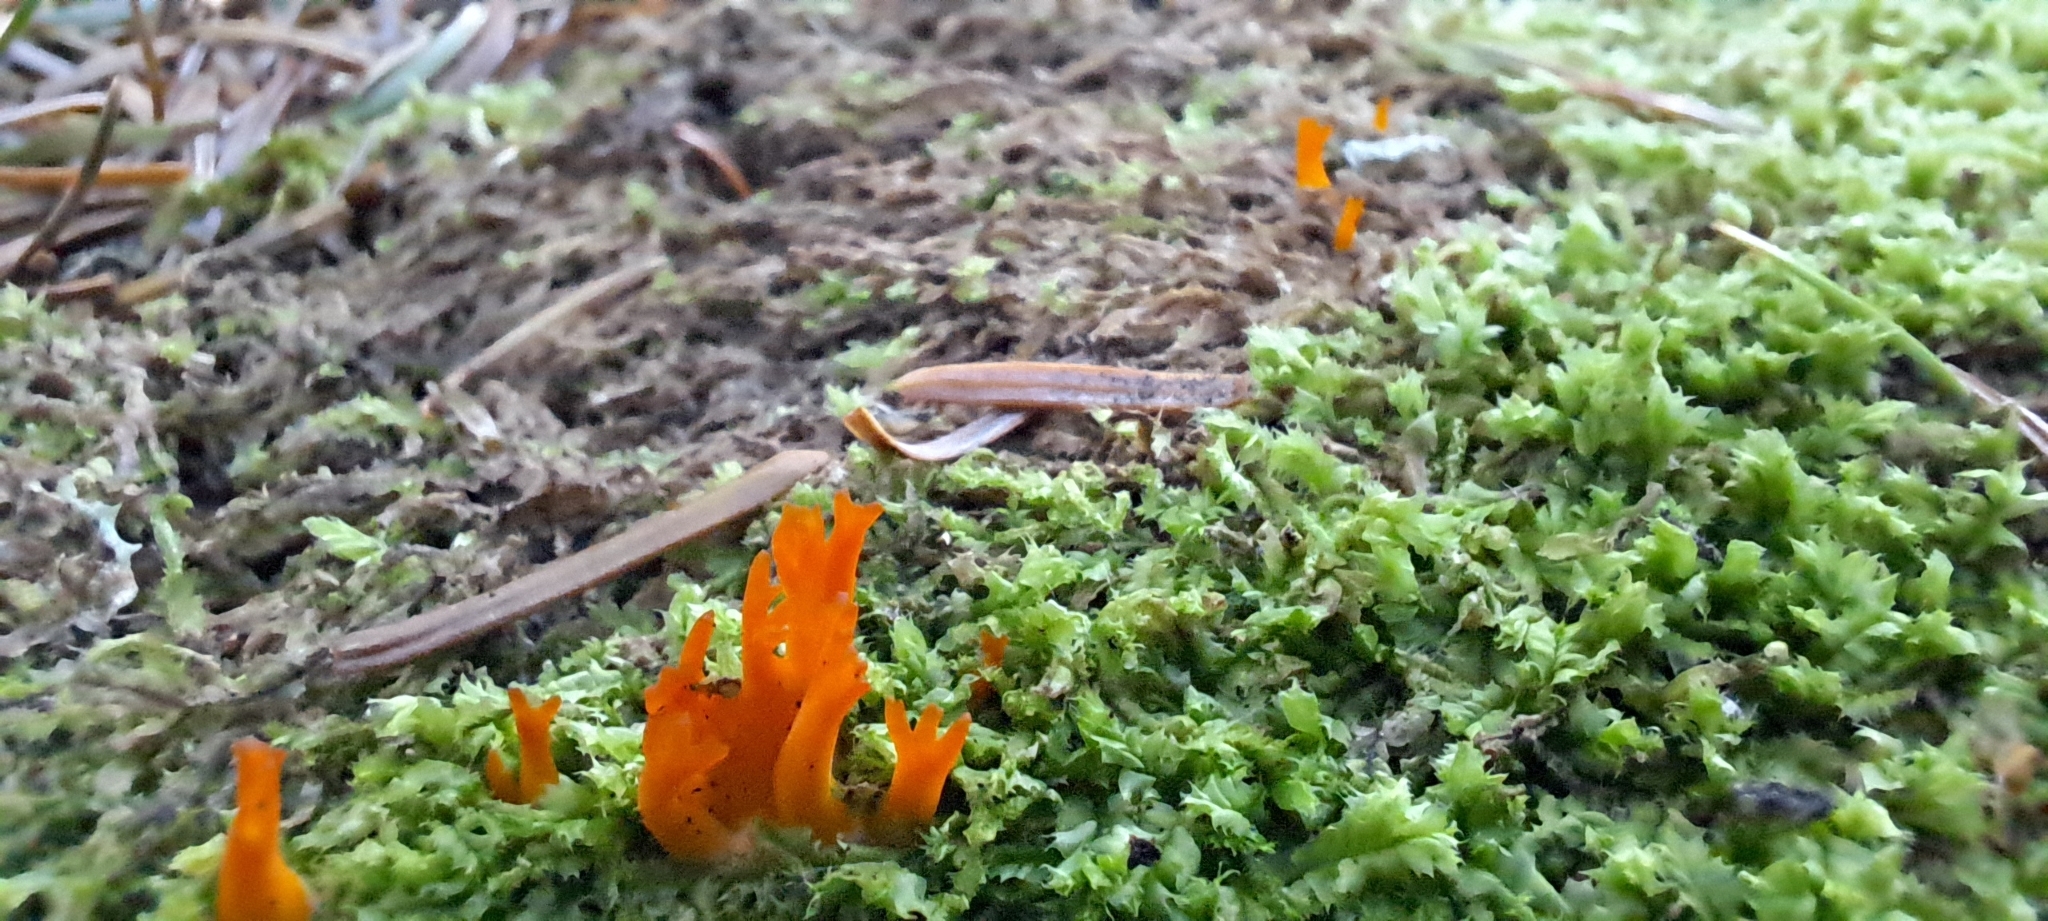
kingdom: Fungi
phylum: Basidiomycota
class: Dacrymycetes
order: Dacrymycetales
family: Dacrymycetaceae
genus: Calocera
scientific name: Calocera viscosa
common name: Yellow stagshorn
